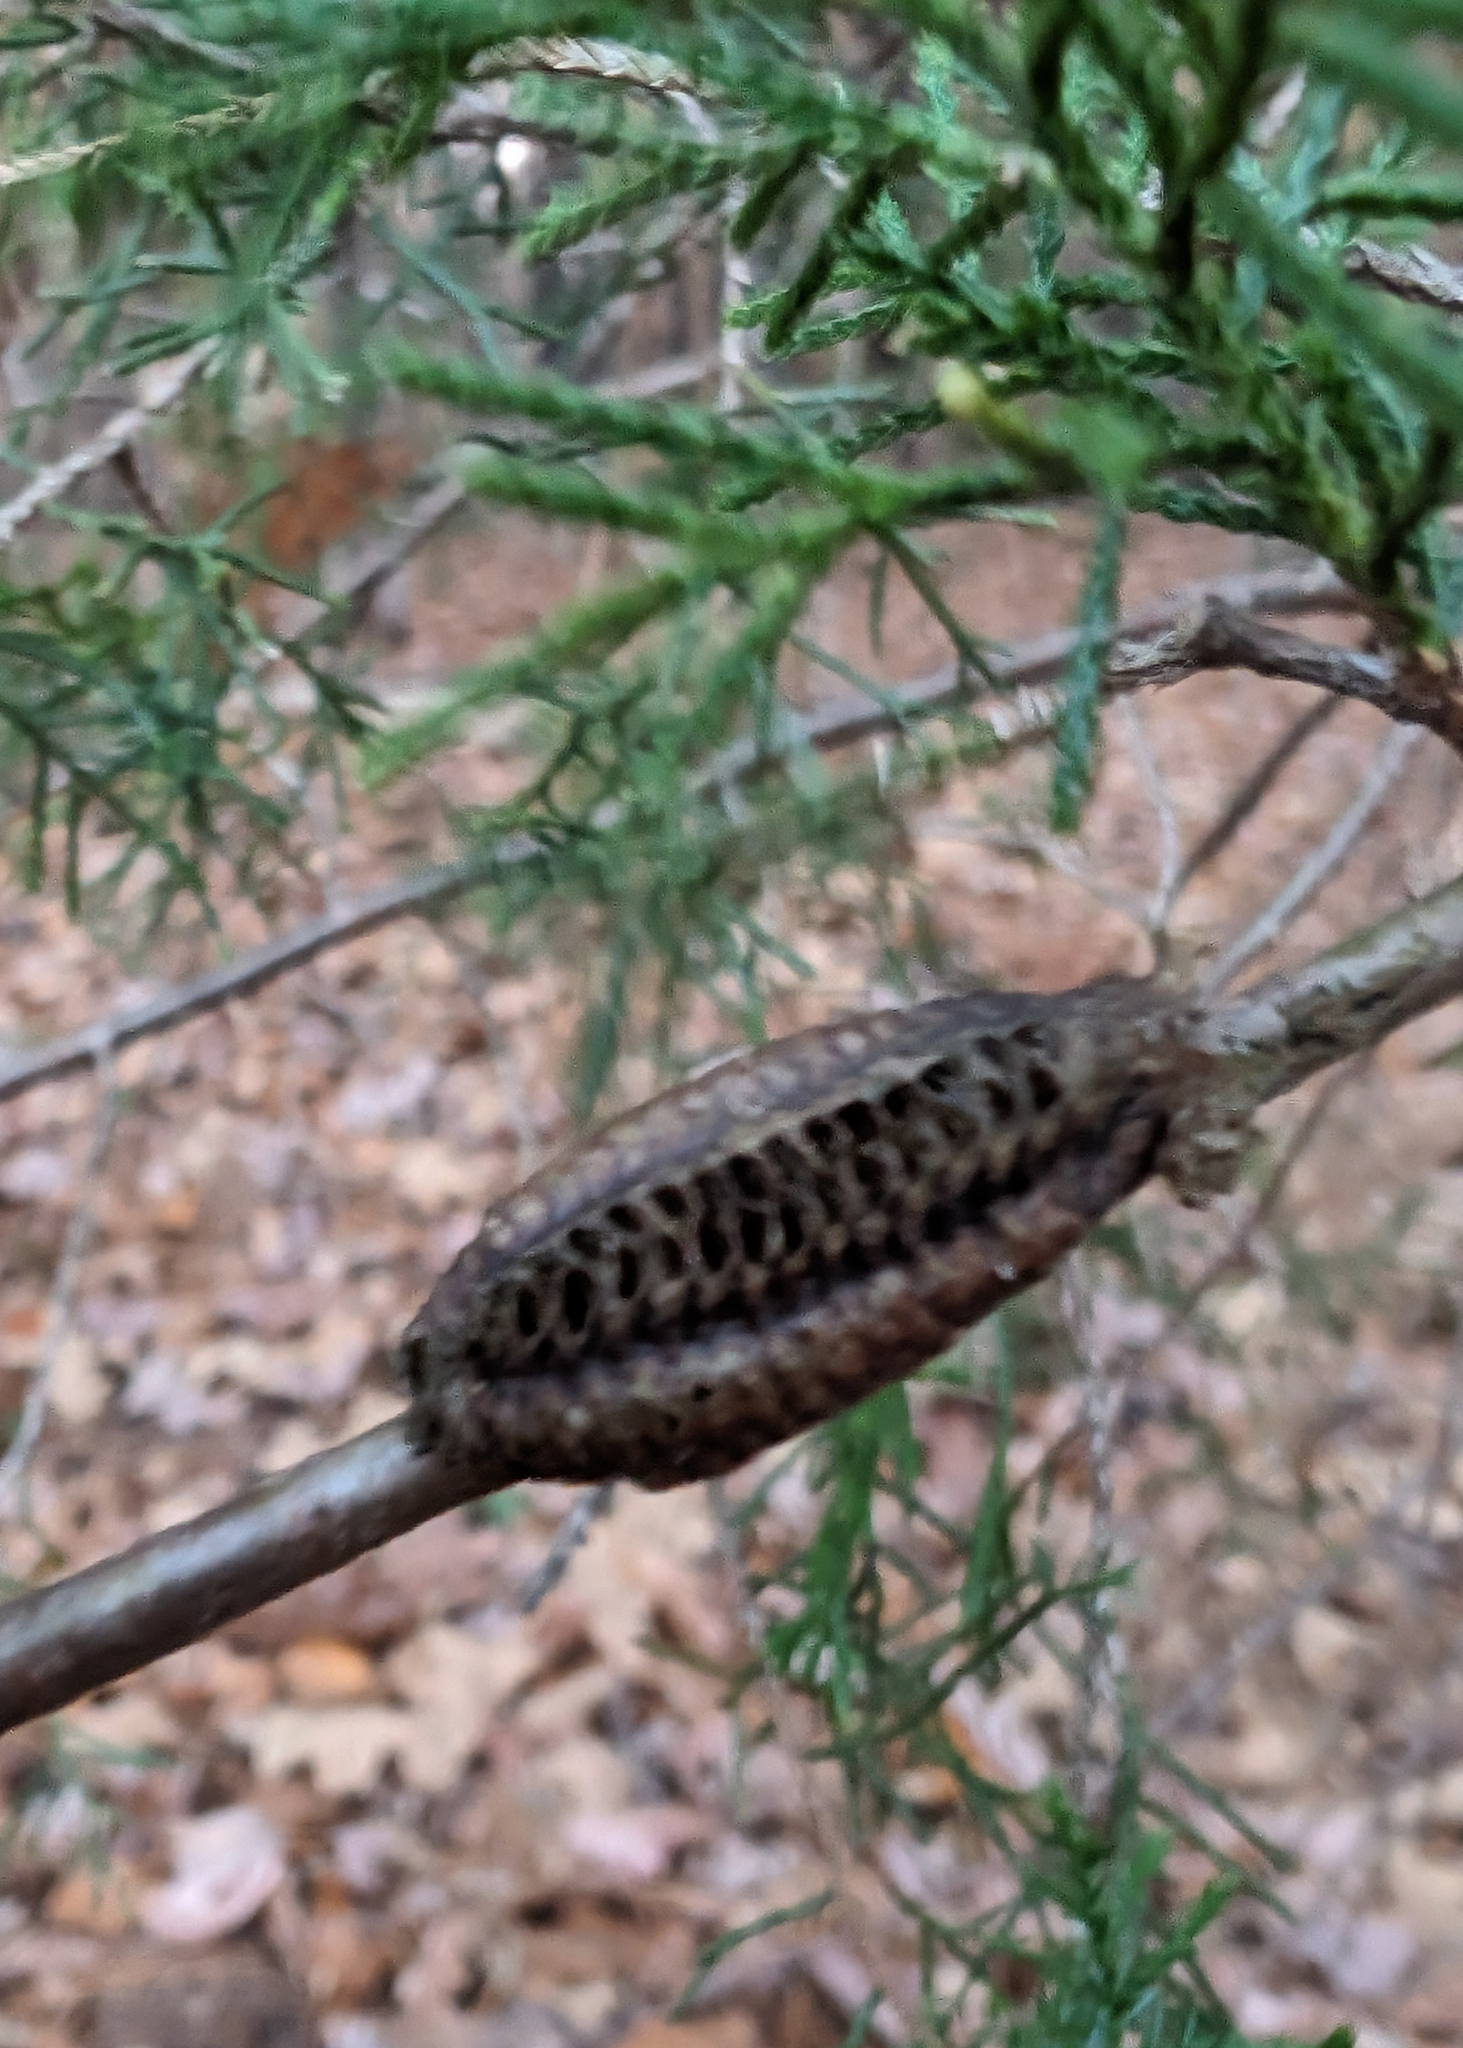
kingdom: Animalia
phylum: Arthropoda
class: Insecta
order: Mantodea
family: Mantidae
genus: Stagmomantis
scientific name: Stagmomantis carolina
